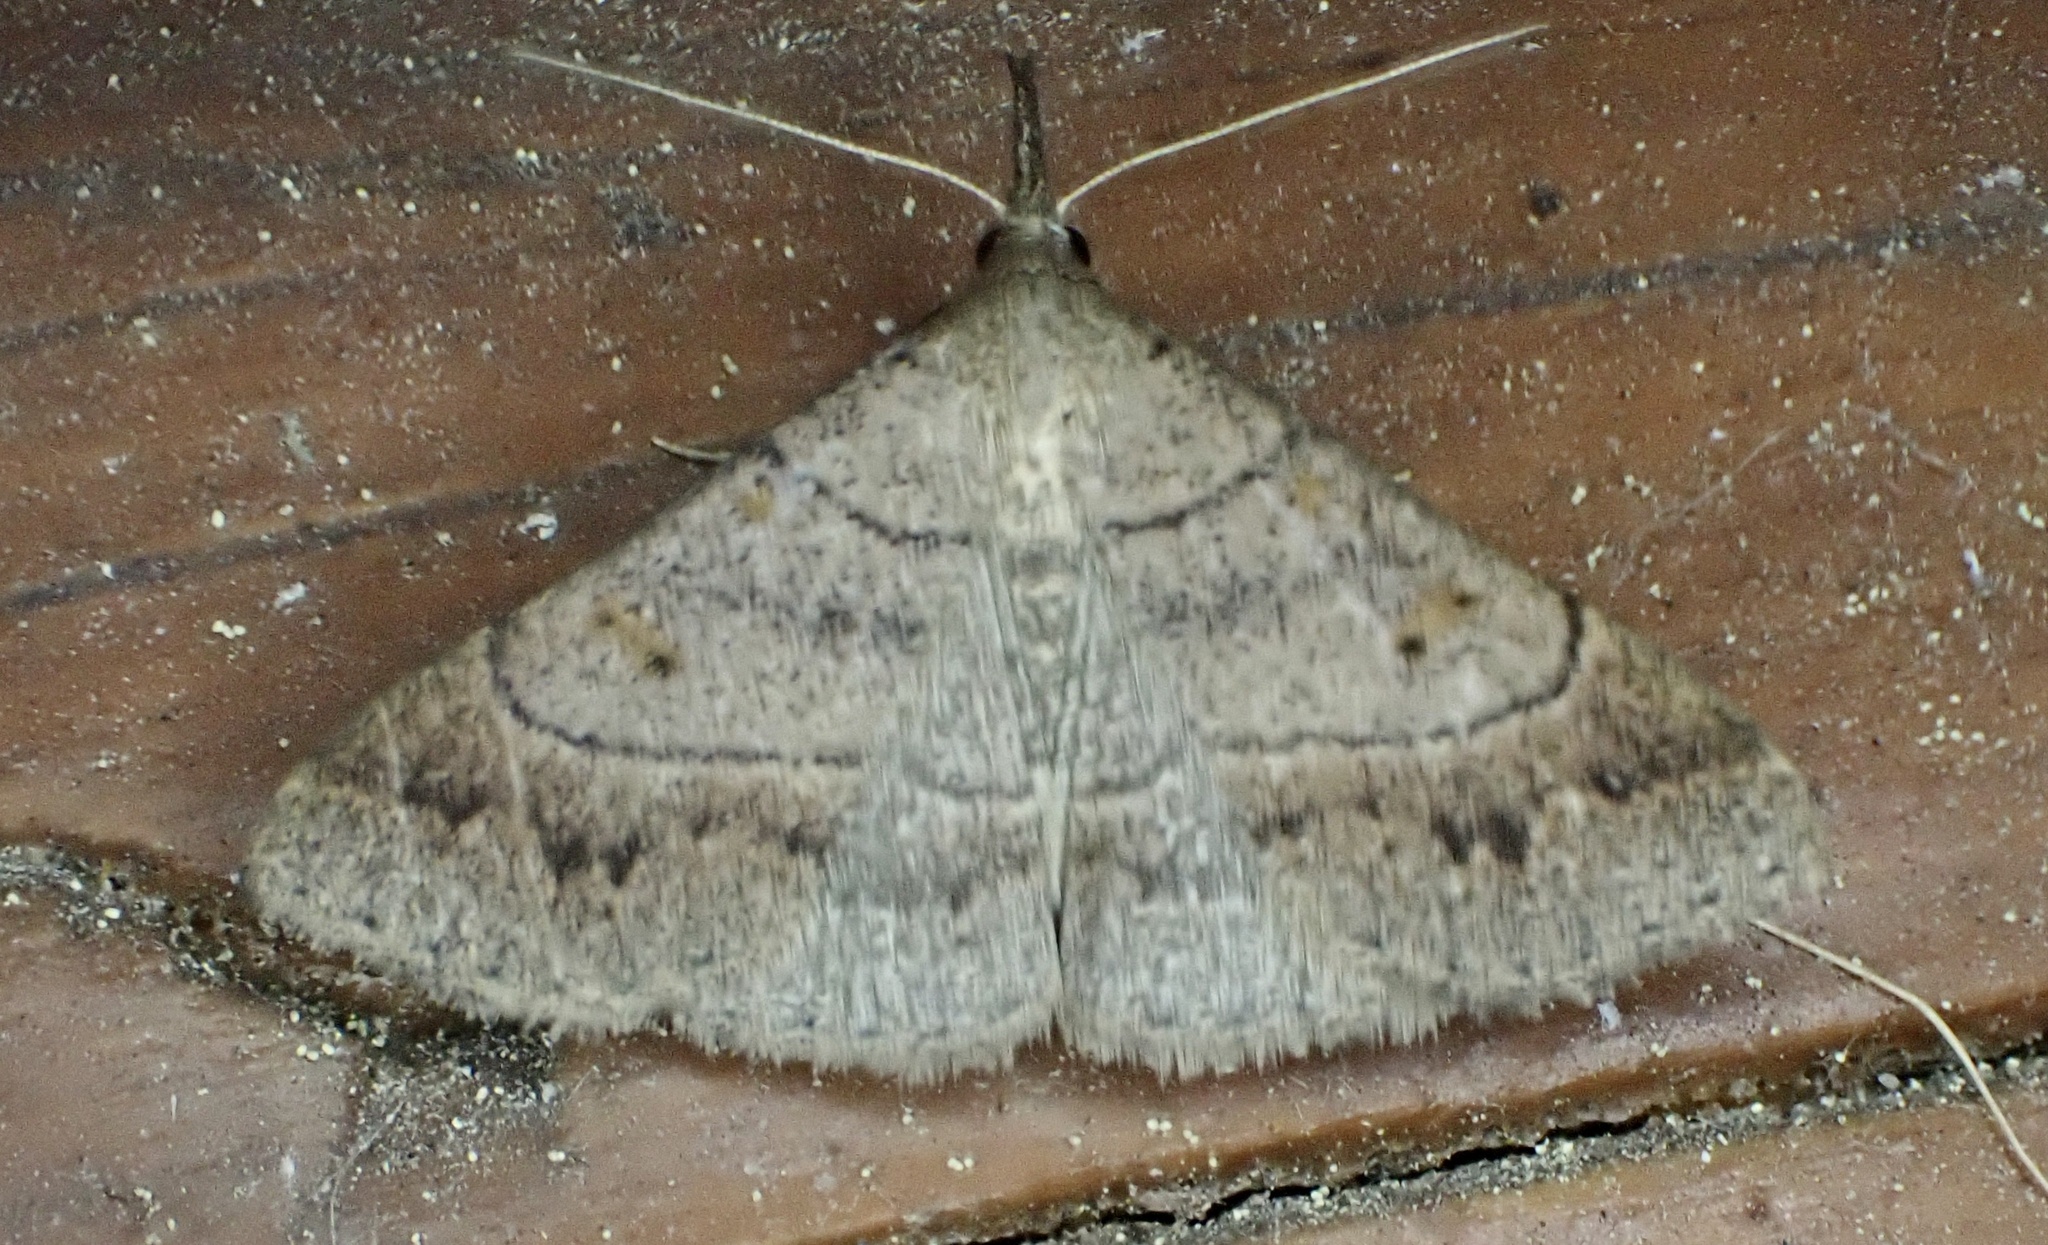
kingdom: Animalia
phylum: Arthropoda
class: Insecta
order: Lepidoptera
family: Erebidae
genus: Renia
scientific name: Renia flavipunctalis
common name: Yellow-spotted renia moth
